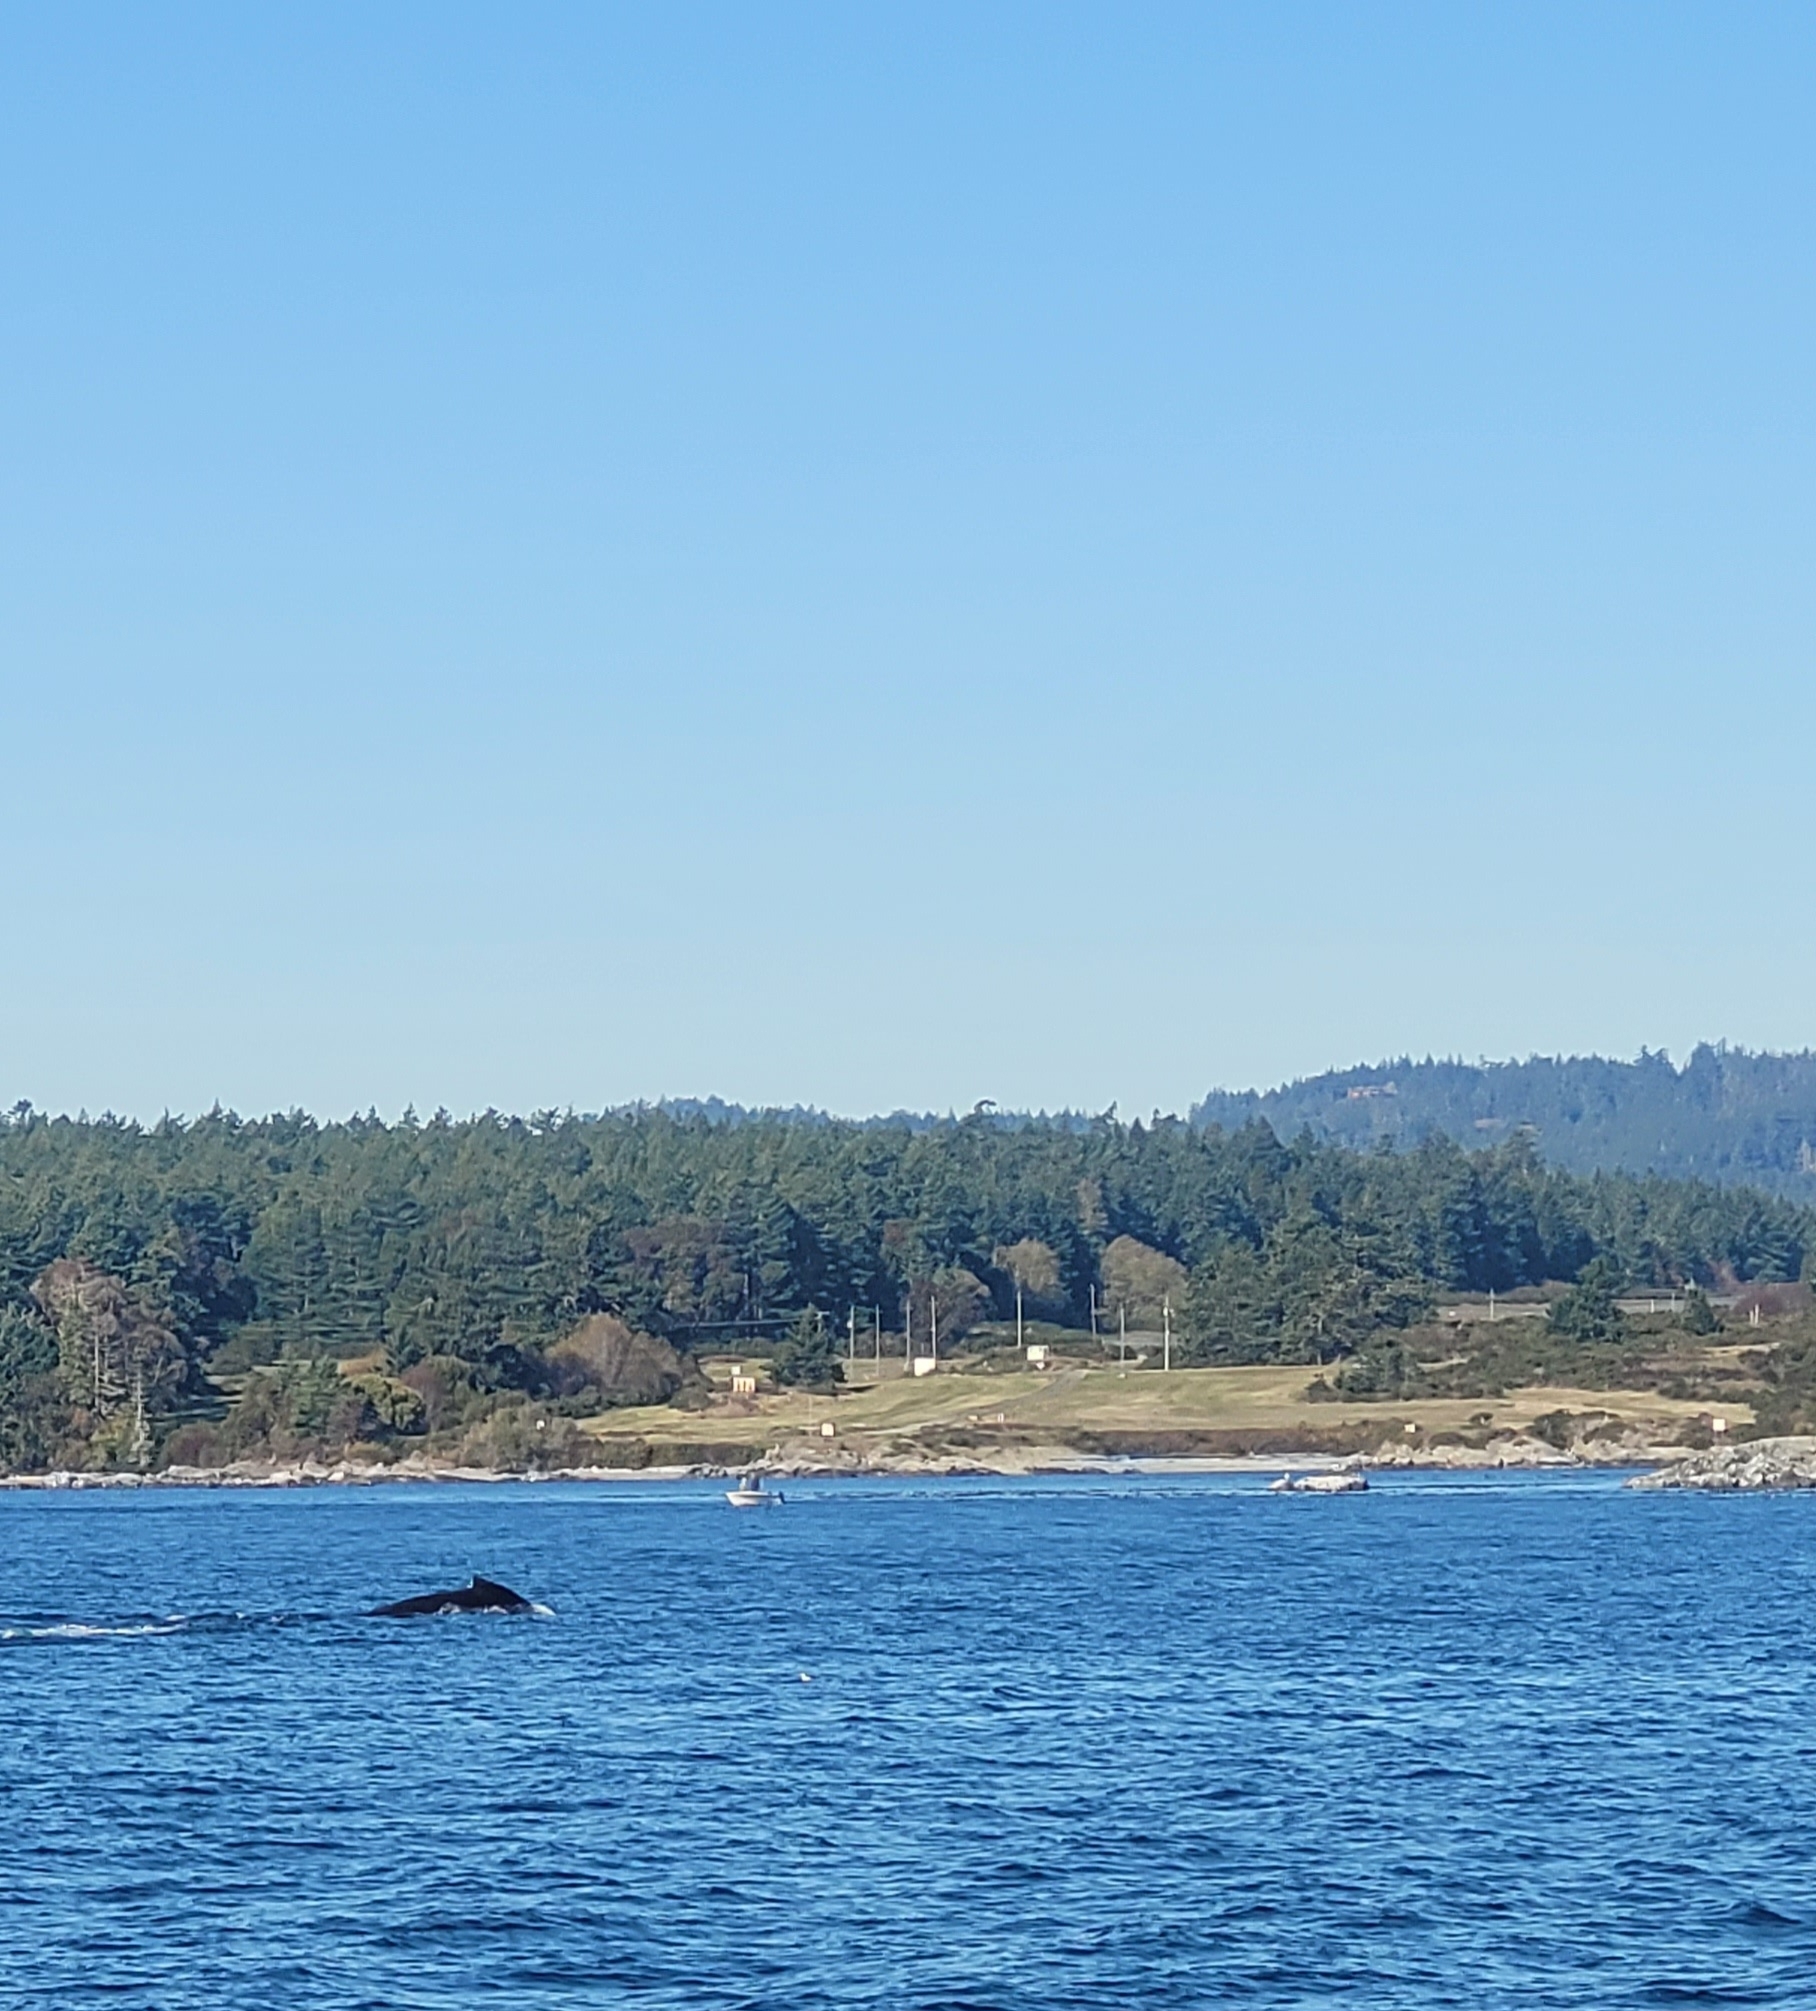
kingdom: Animalia
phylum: Chordata
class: Mammalia
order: Cetacea
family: Balaenopteridae
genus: Megaptera
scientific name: Megaptera novaeangliae
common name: Humpback whale
